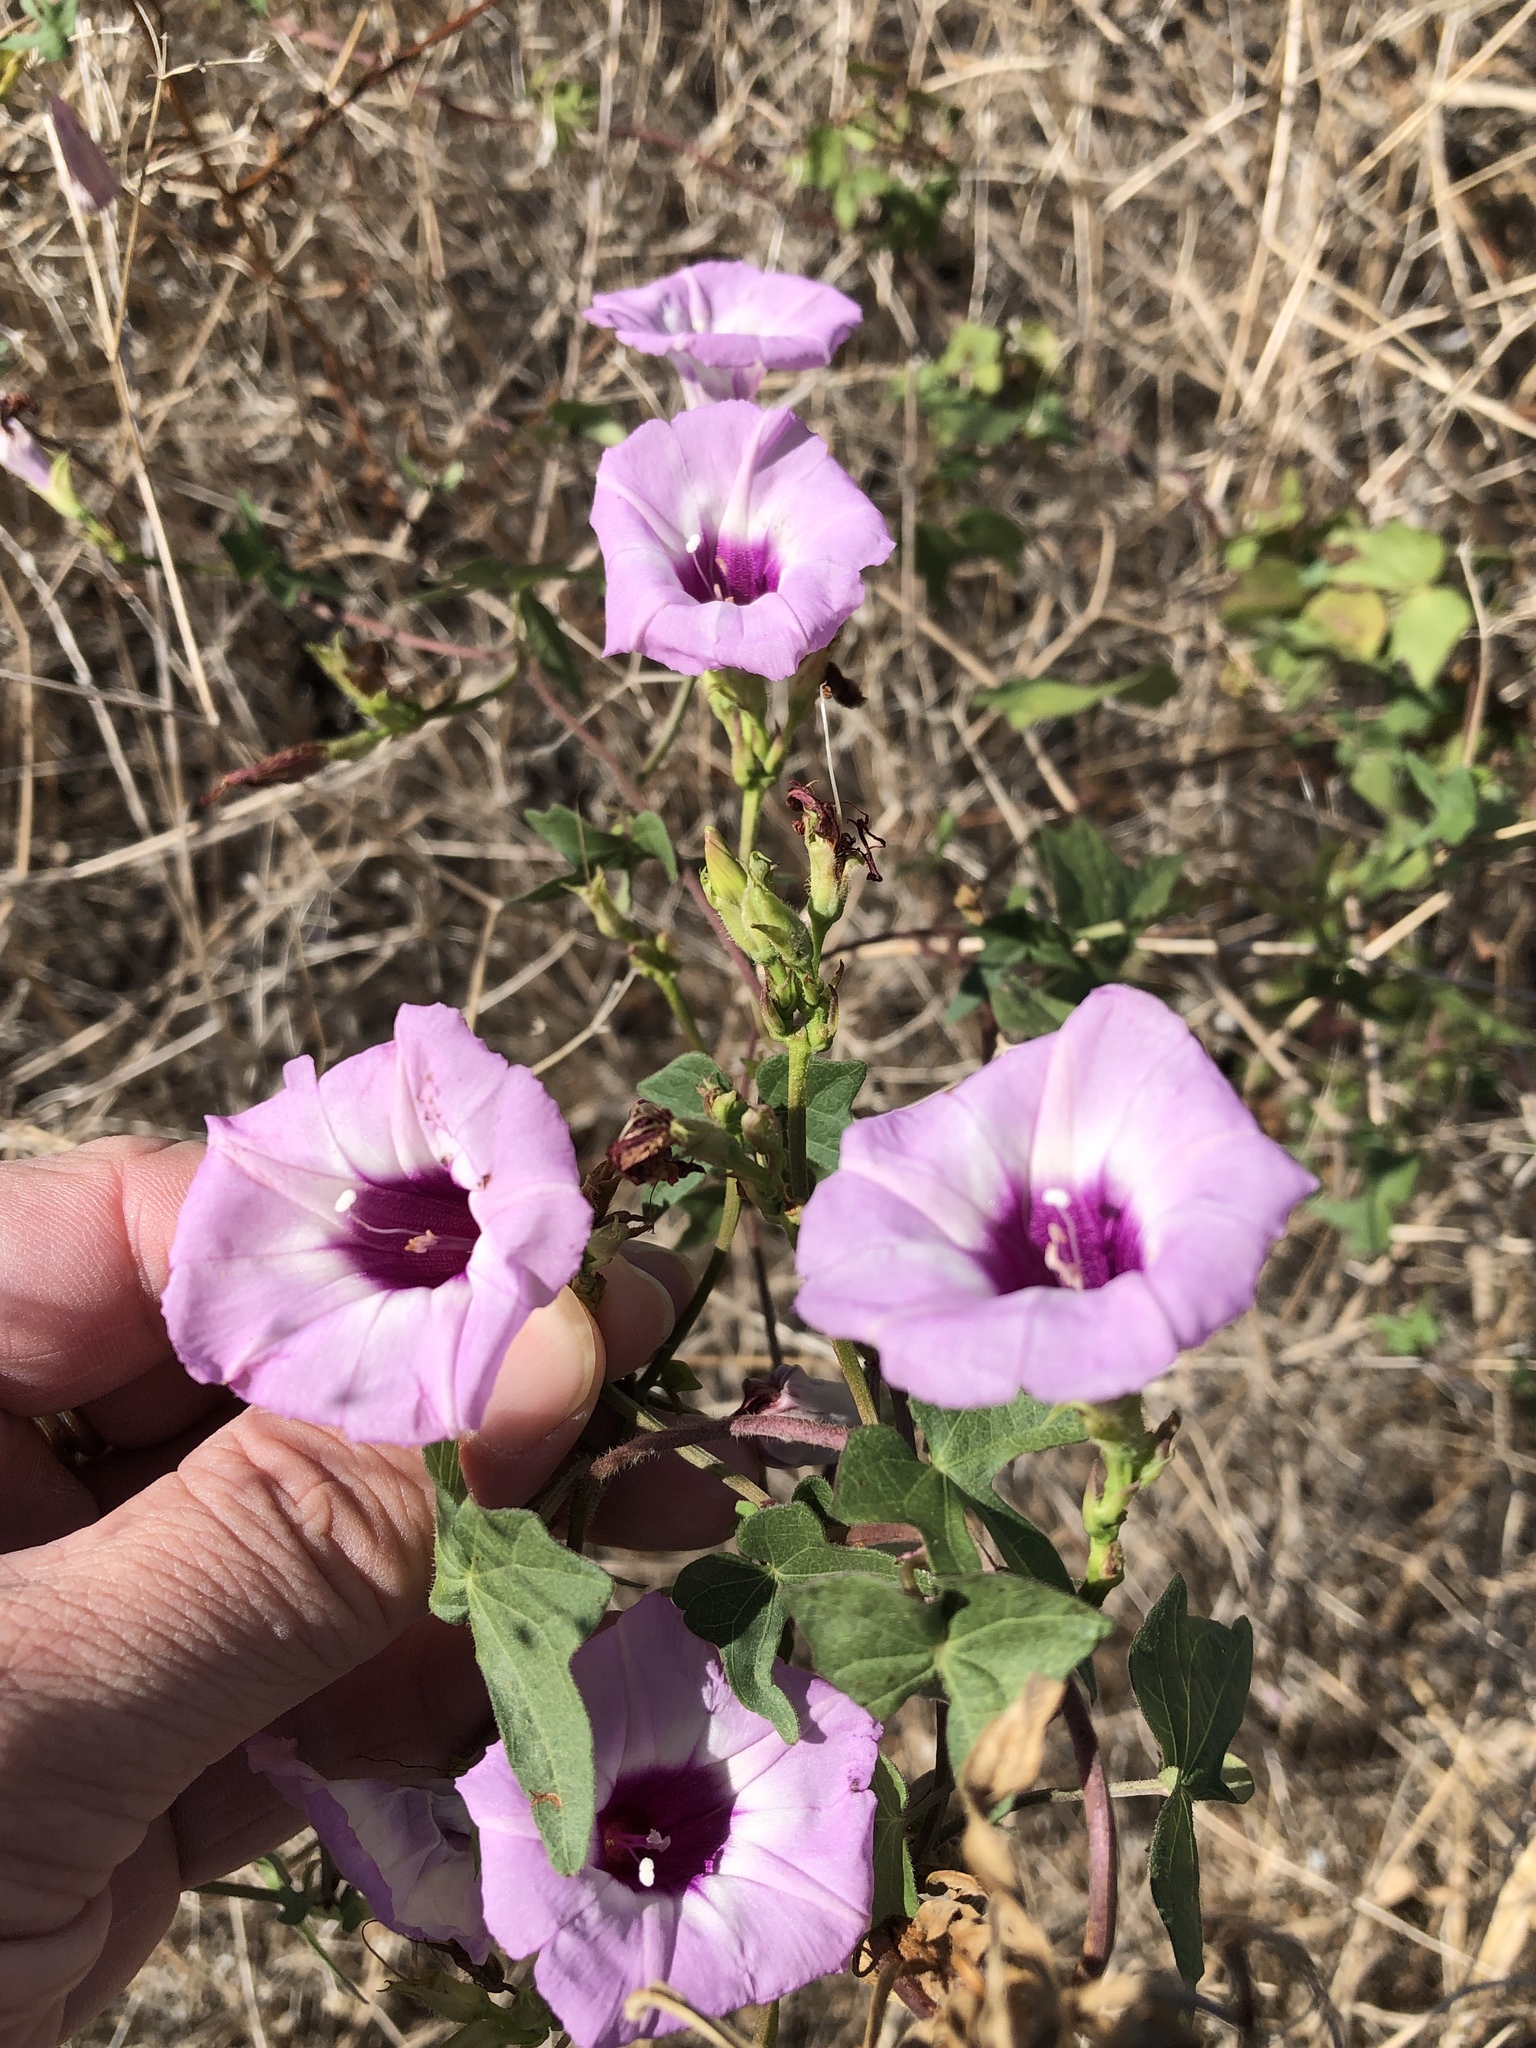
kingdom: Plantae
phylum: Tracheophyta
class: Magnoliopsida
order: Solanales
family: Convolvulaceae
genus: Ipomoea
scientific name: Ipomoea cordatotriloba
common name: Cotton morning glory
